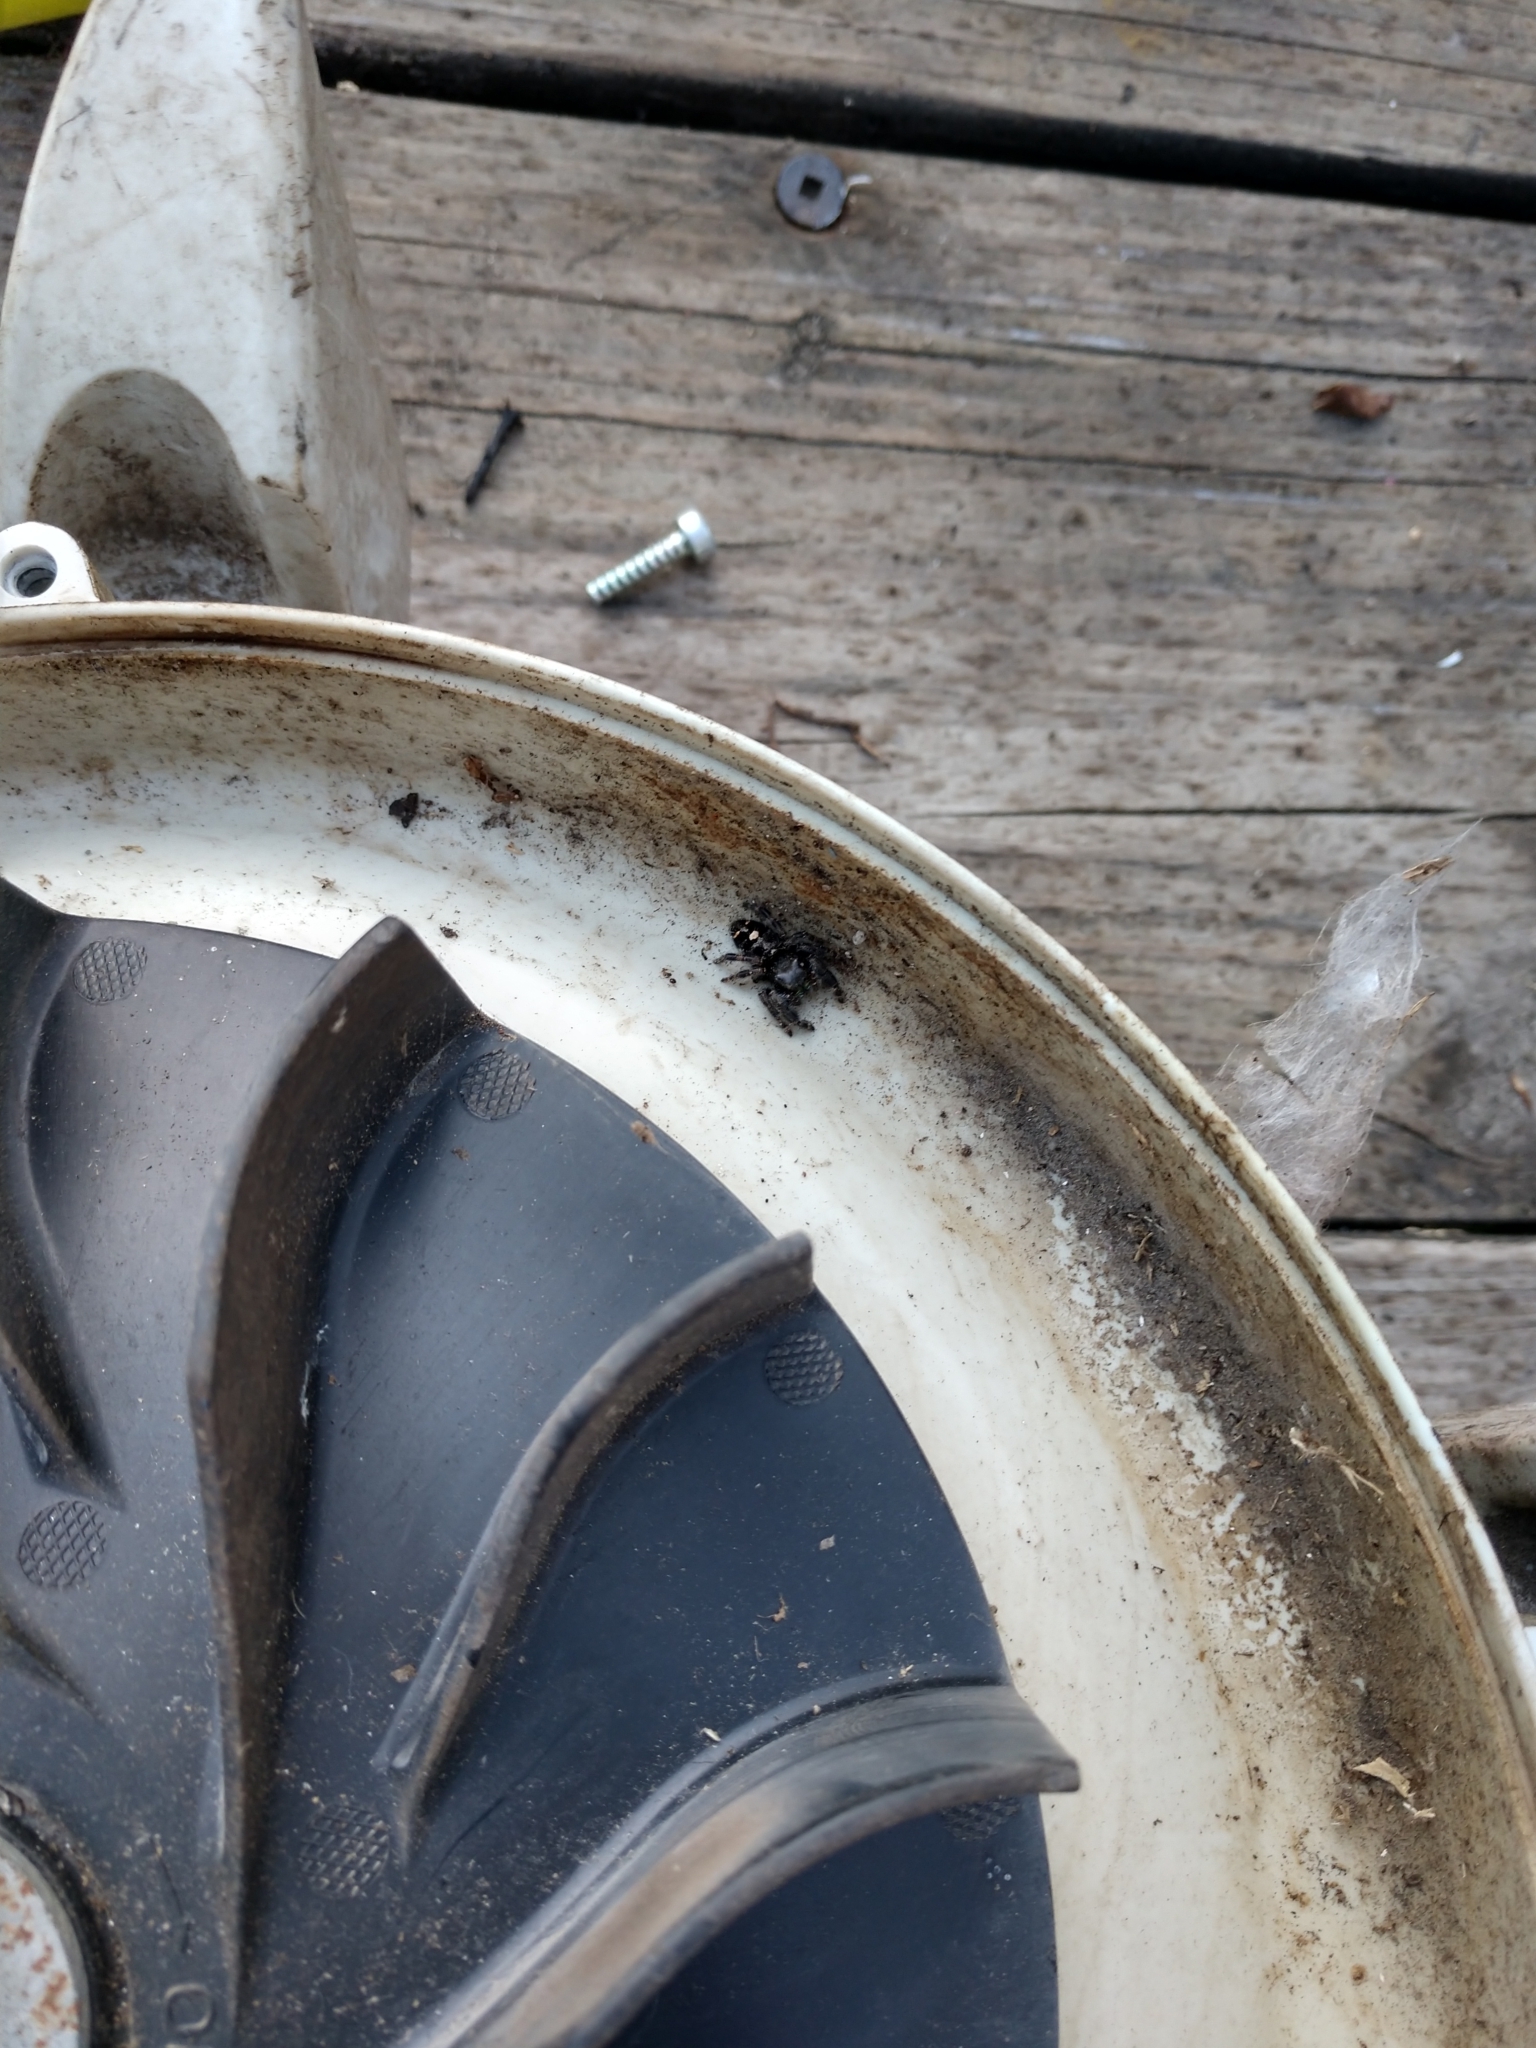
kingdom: Animalia
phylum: Arthropoda
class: Arachnida
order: Araneae
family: Salticidae
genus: Phidippus
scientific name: Phidippus audax
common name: Bold jumper
